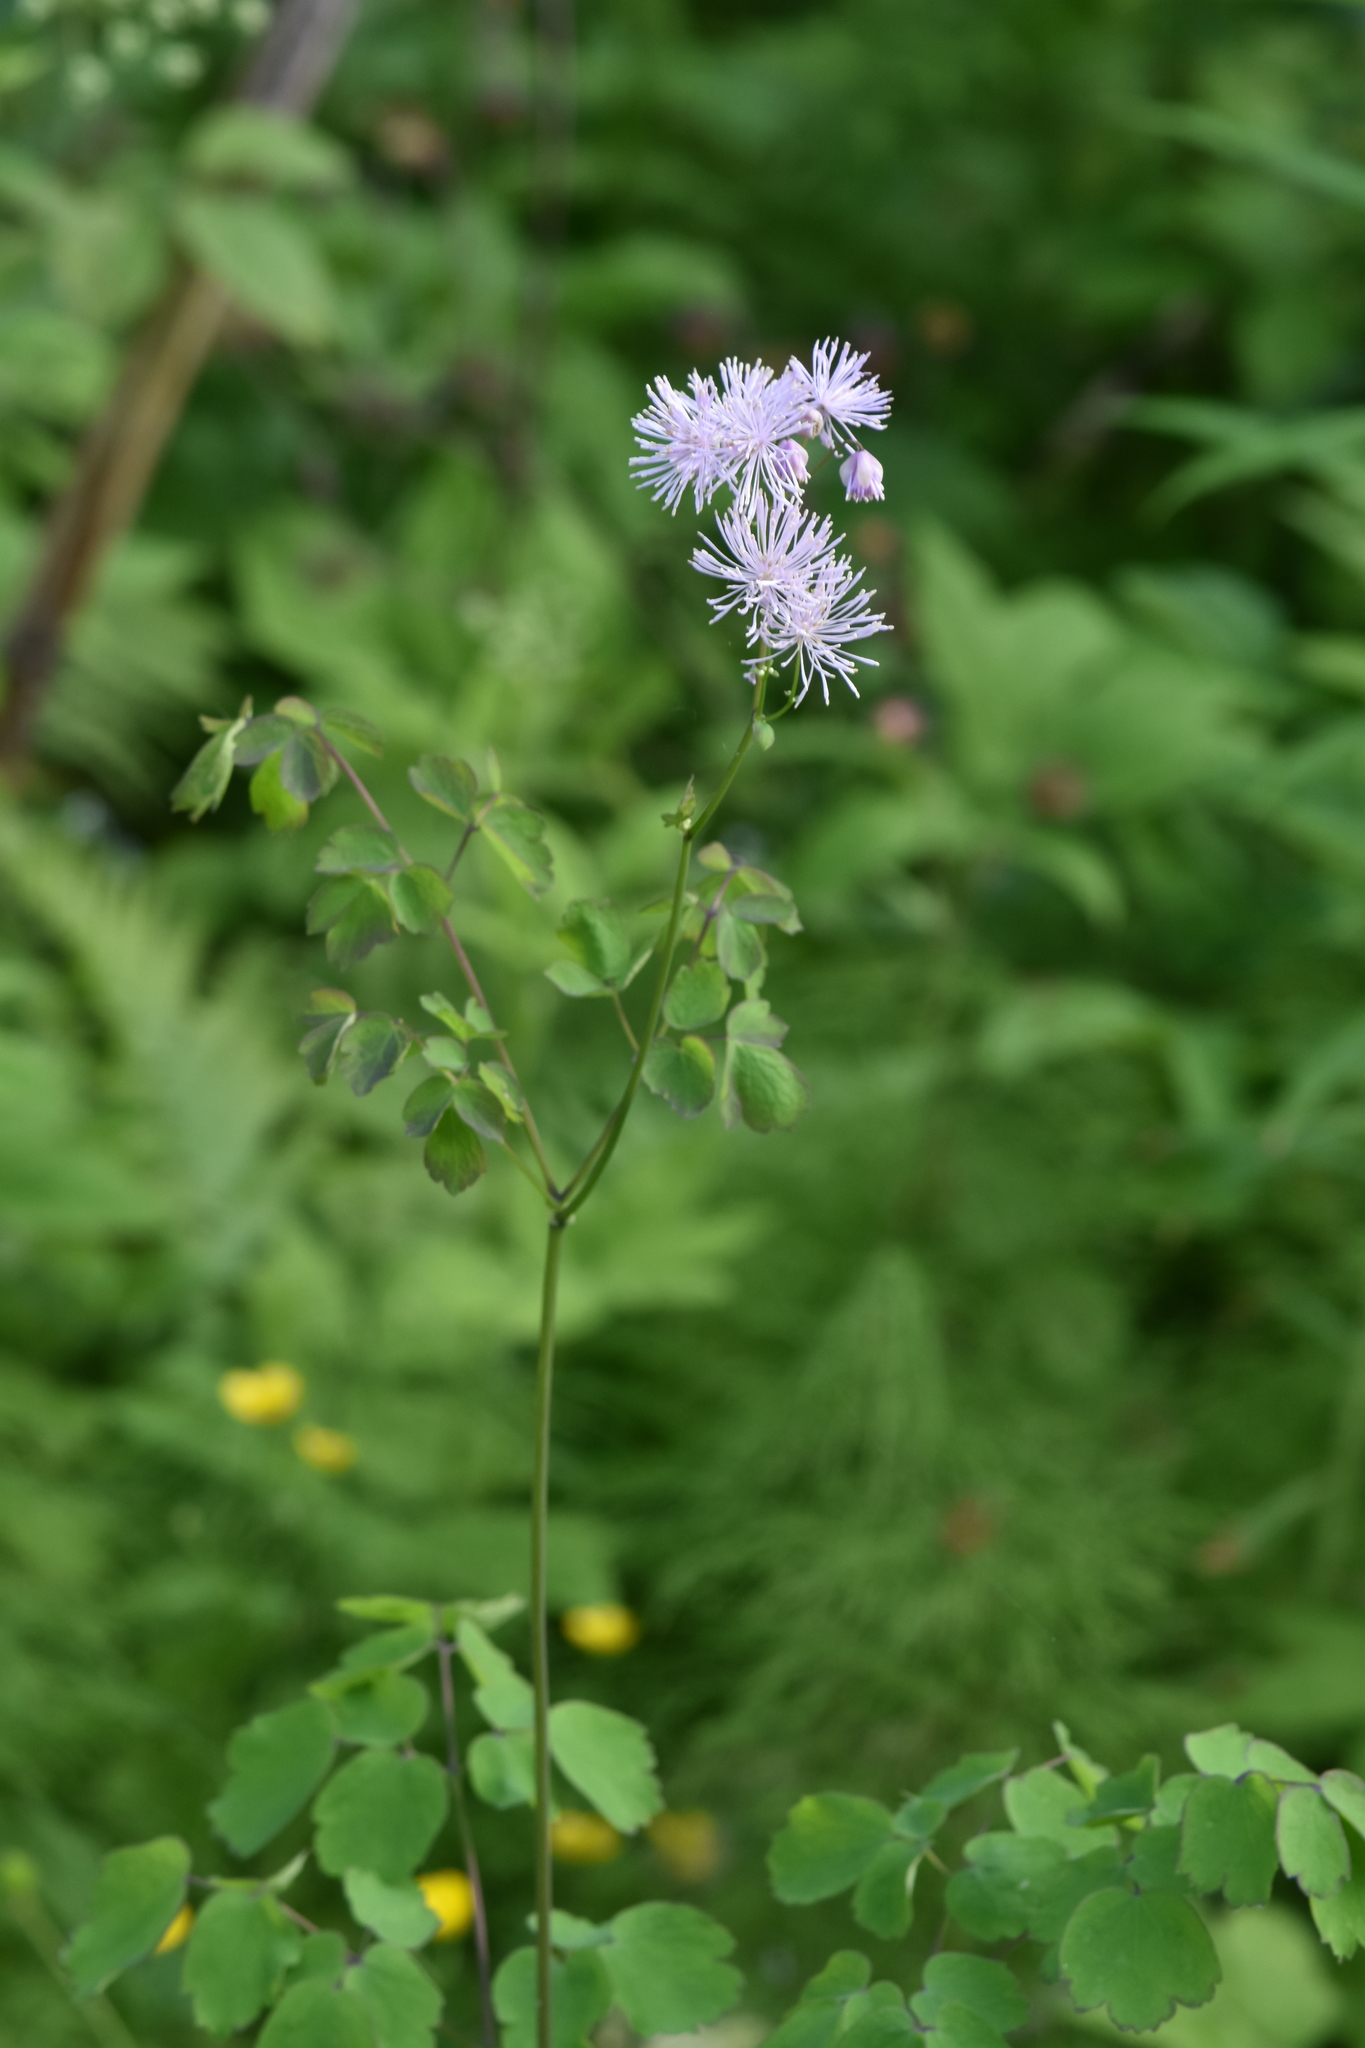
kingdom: Plantae
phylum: Tracheophyta
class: Magnoliopsida
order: Ranunculales
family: Ranunculaceae
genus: Thalictrum
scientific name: Thalictrum aquilegiifolium
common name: French meadow-rue
